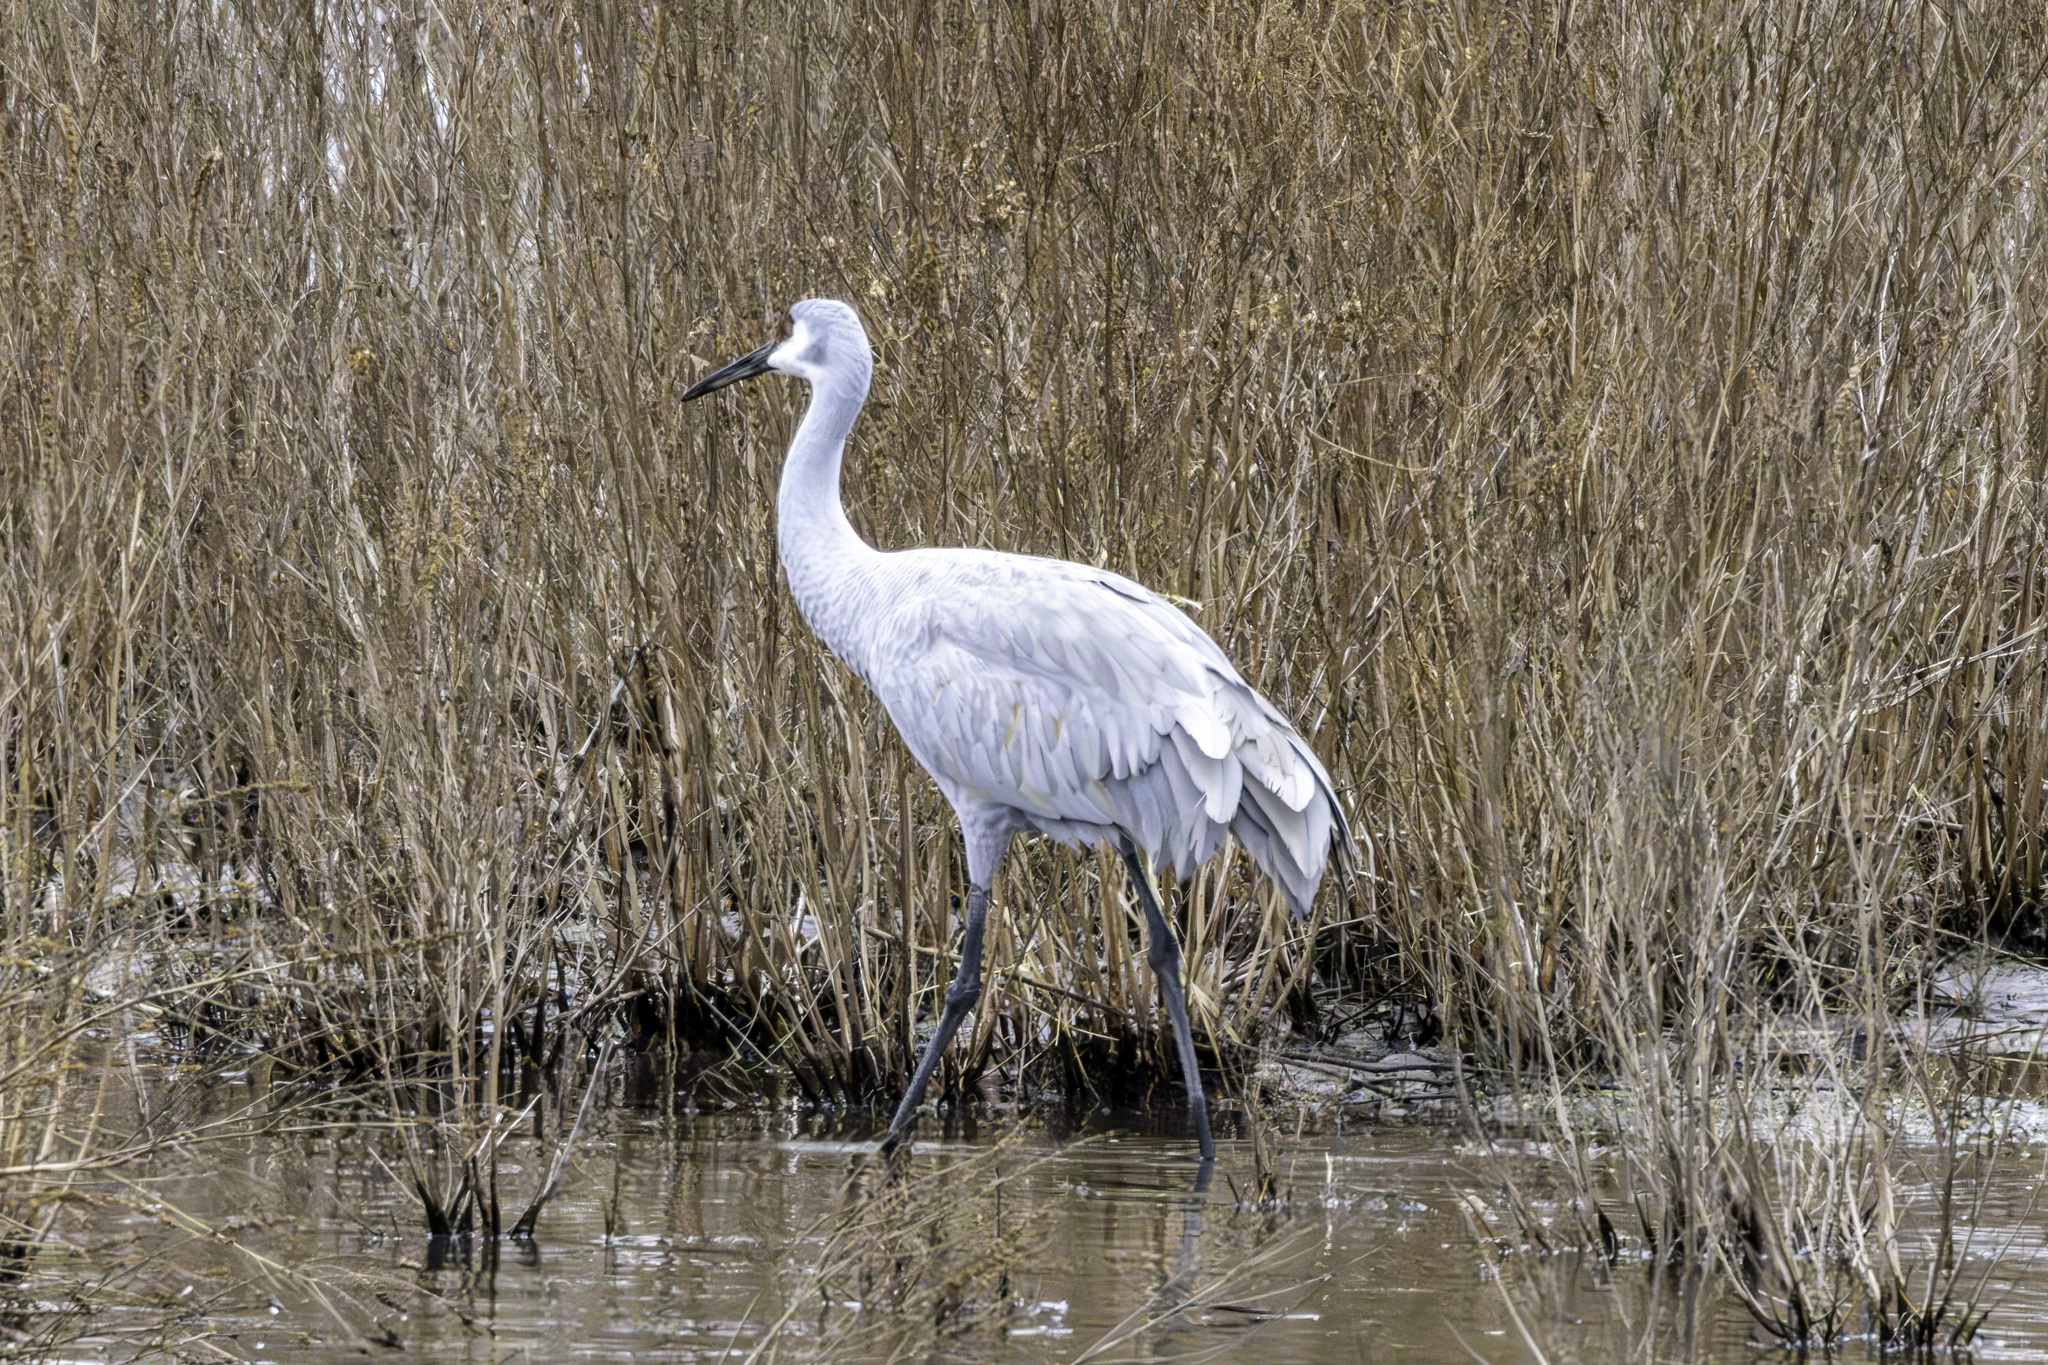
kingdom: Animalia
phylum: Chordata
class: Aves
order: Gruiformes
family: Gruidae
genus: Grus
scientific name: Grus canadensis
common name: Sandhill crane
